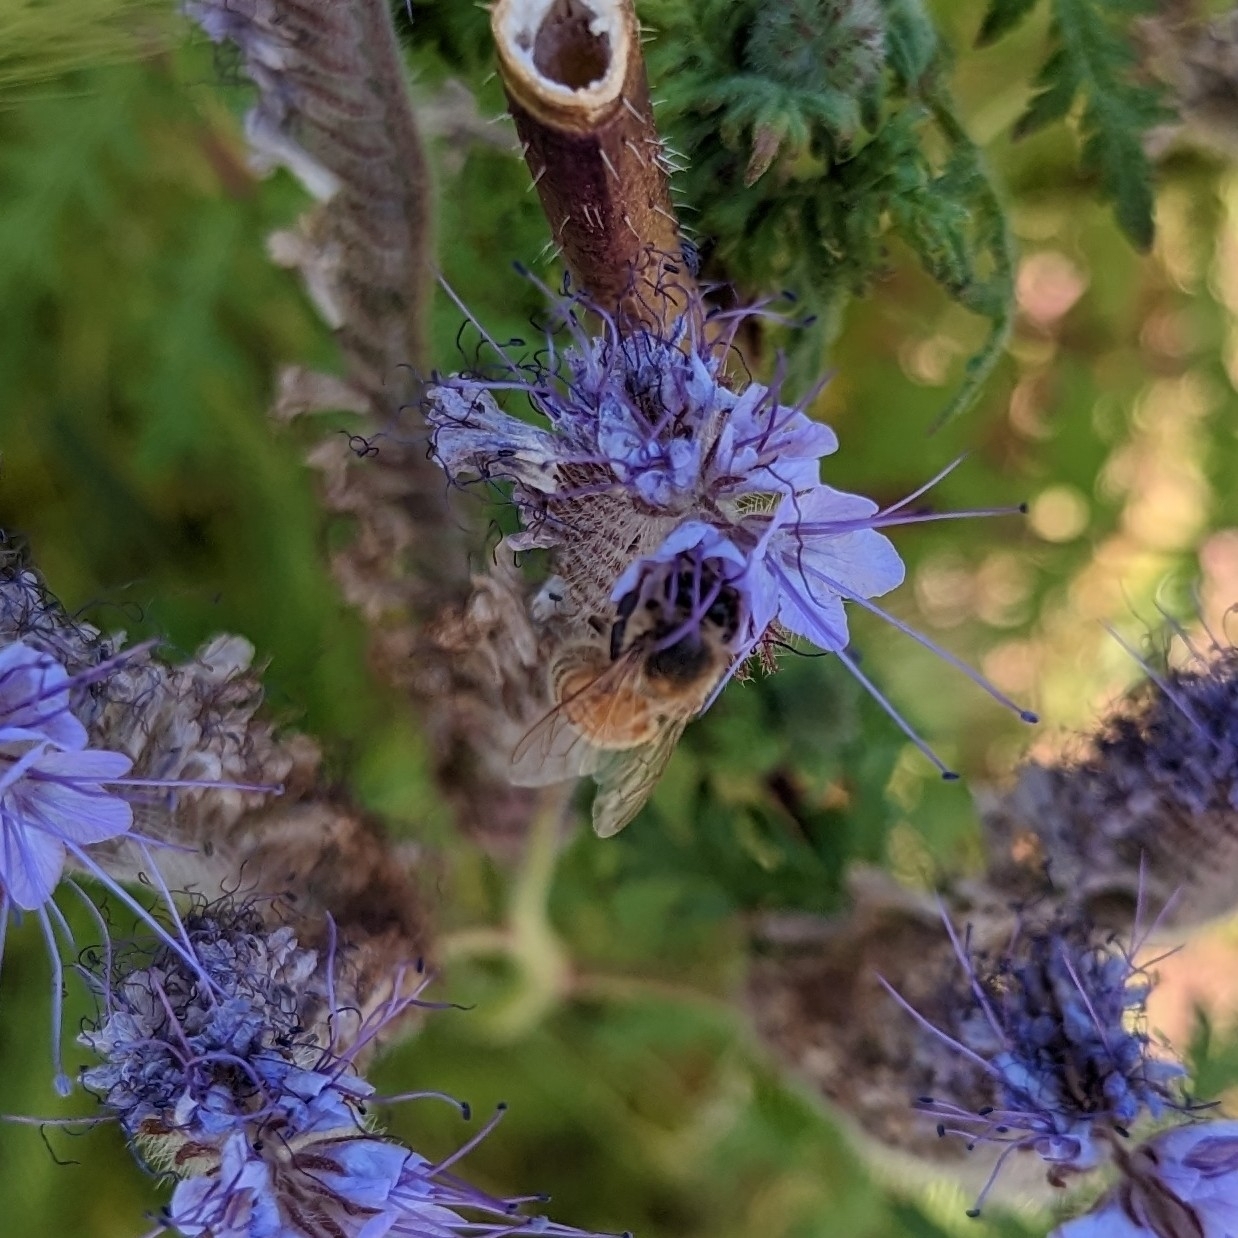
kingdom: Animalia
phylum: Arthropoda
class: Insecta
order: Hymenoptera
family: Apidae
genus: Apis
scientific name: Apis mellifera
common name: Honey bee
